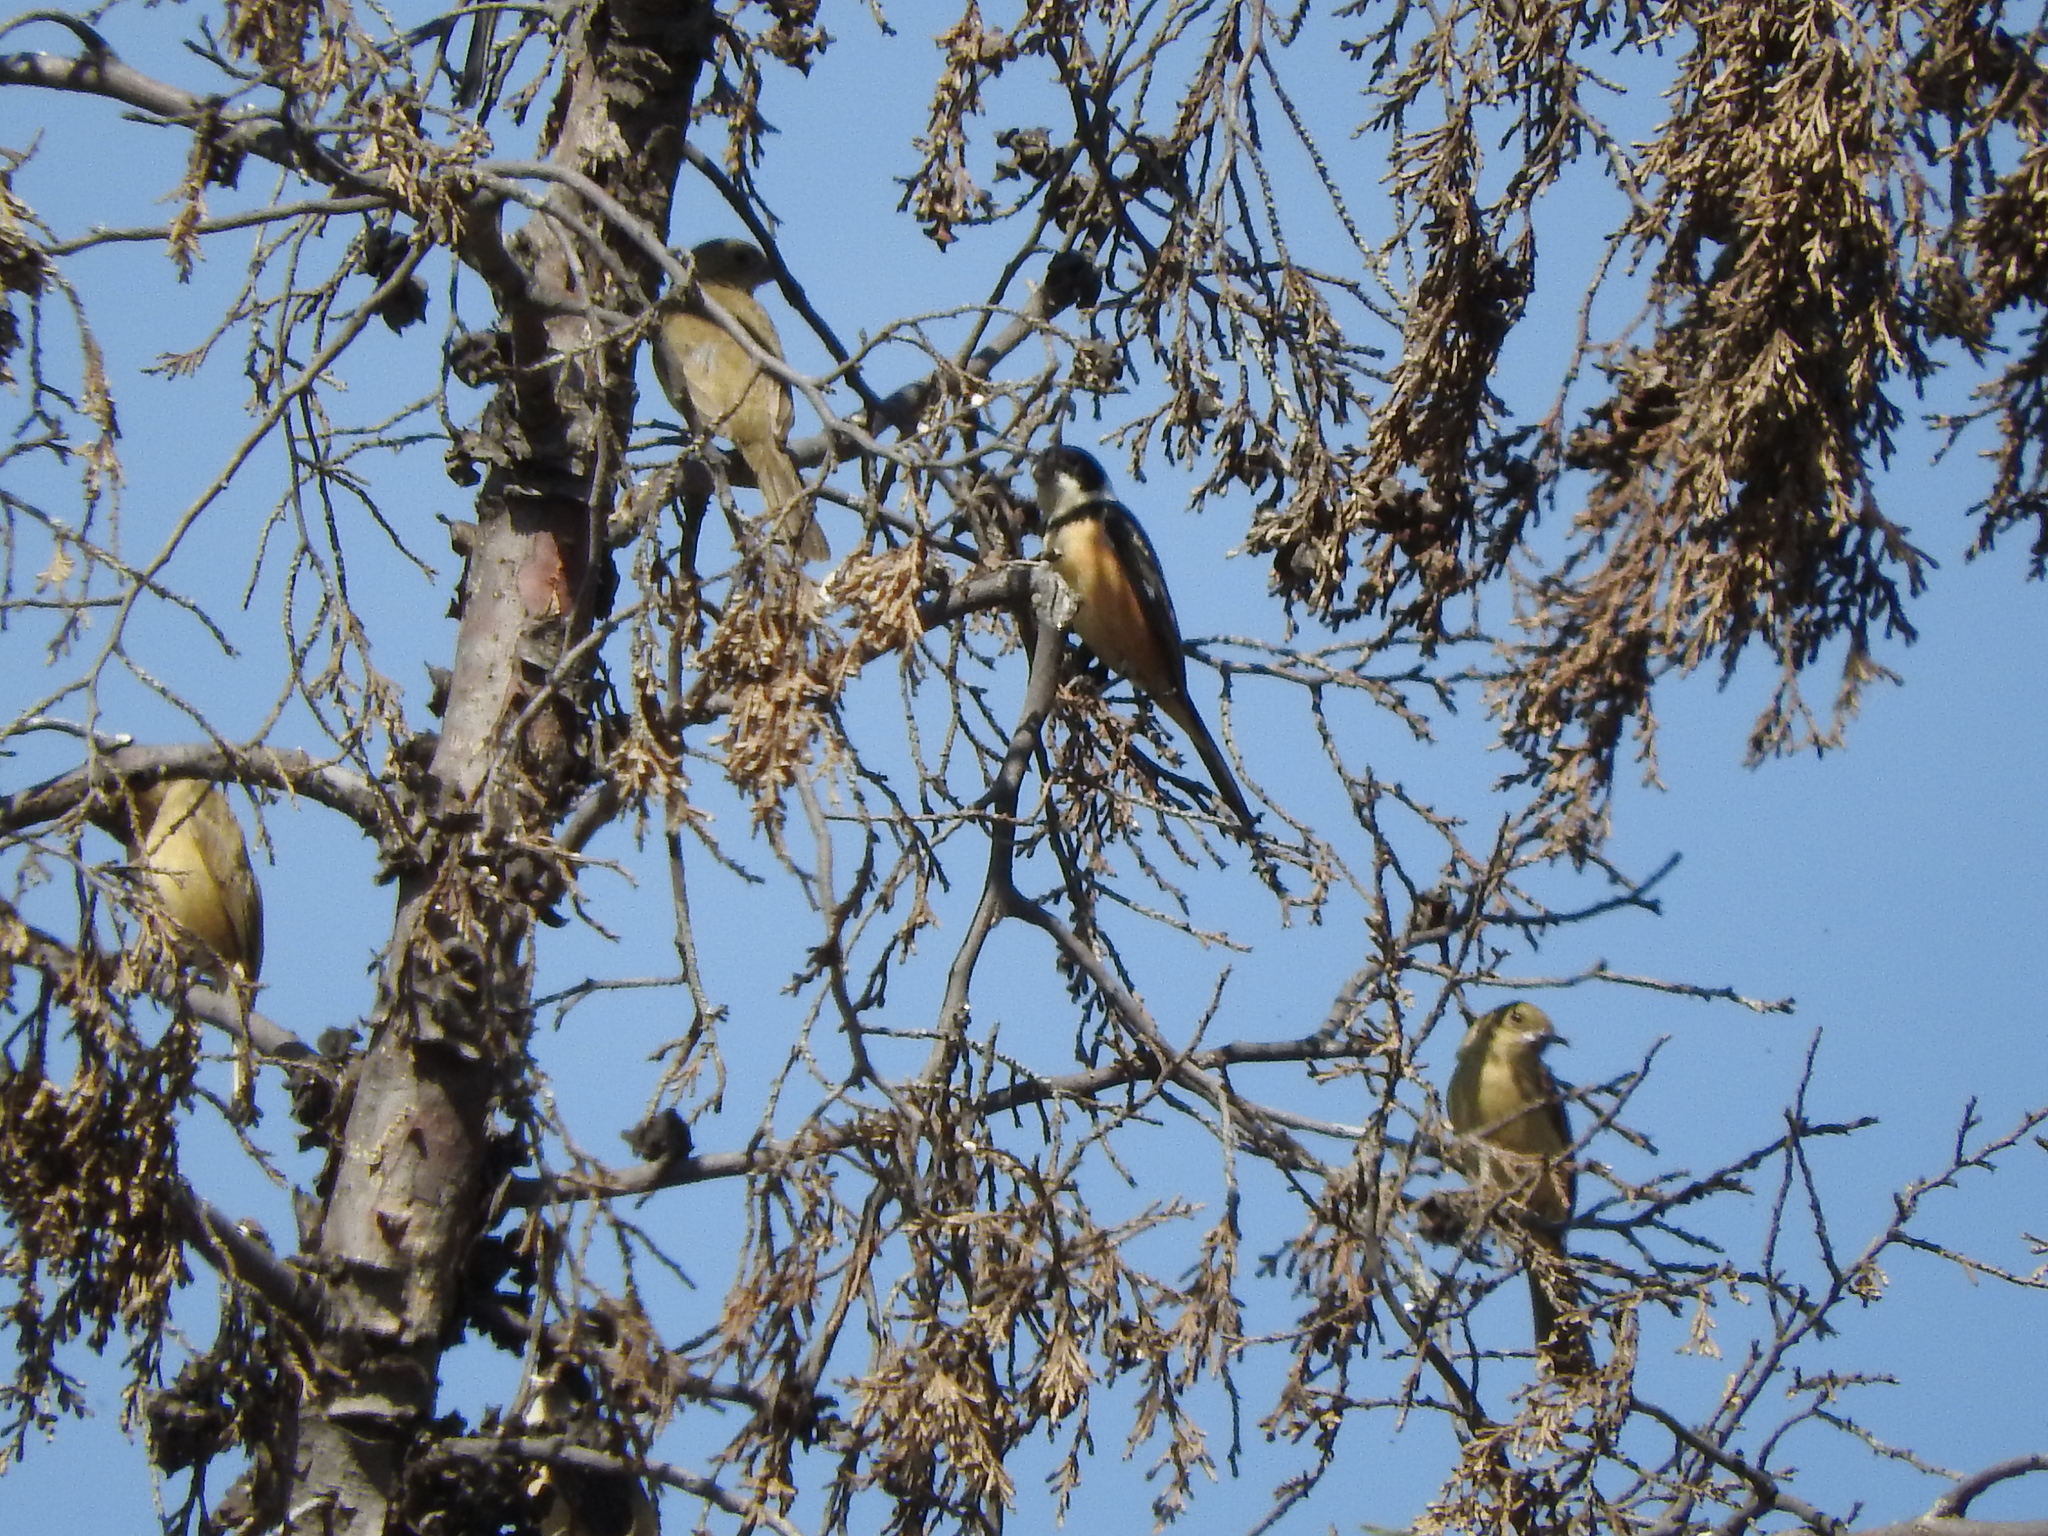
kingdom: Animalia
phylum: Chordata
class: Aves
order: Passeriformes
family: Thraupidae
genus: Sporophila
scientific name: Sporophila torqueola
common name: White-collared seedeater
